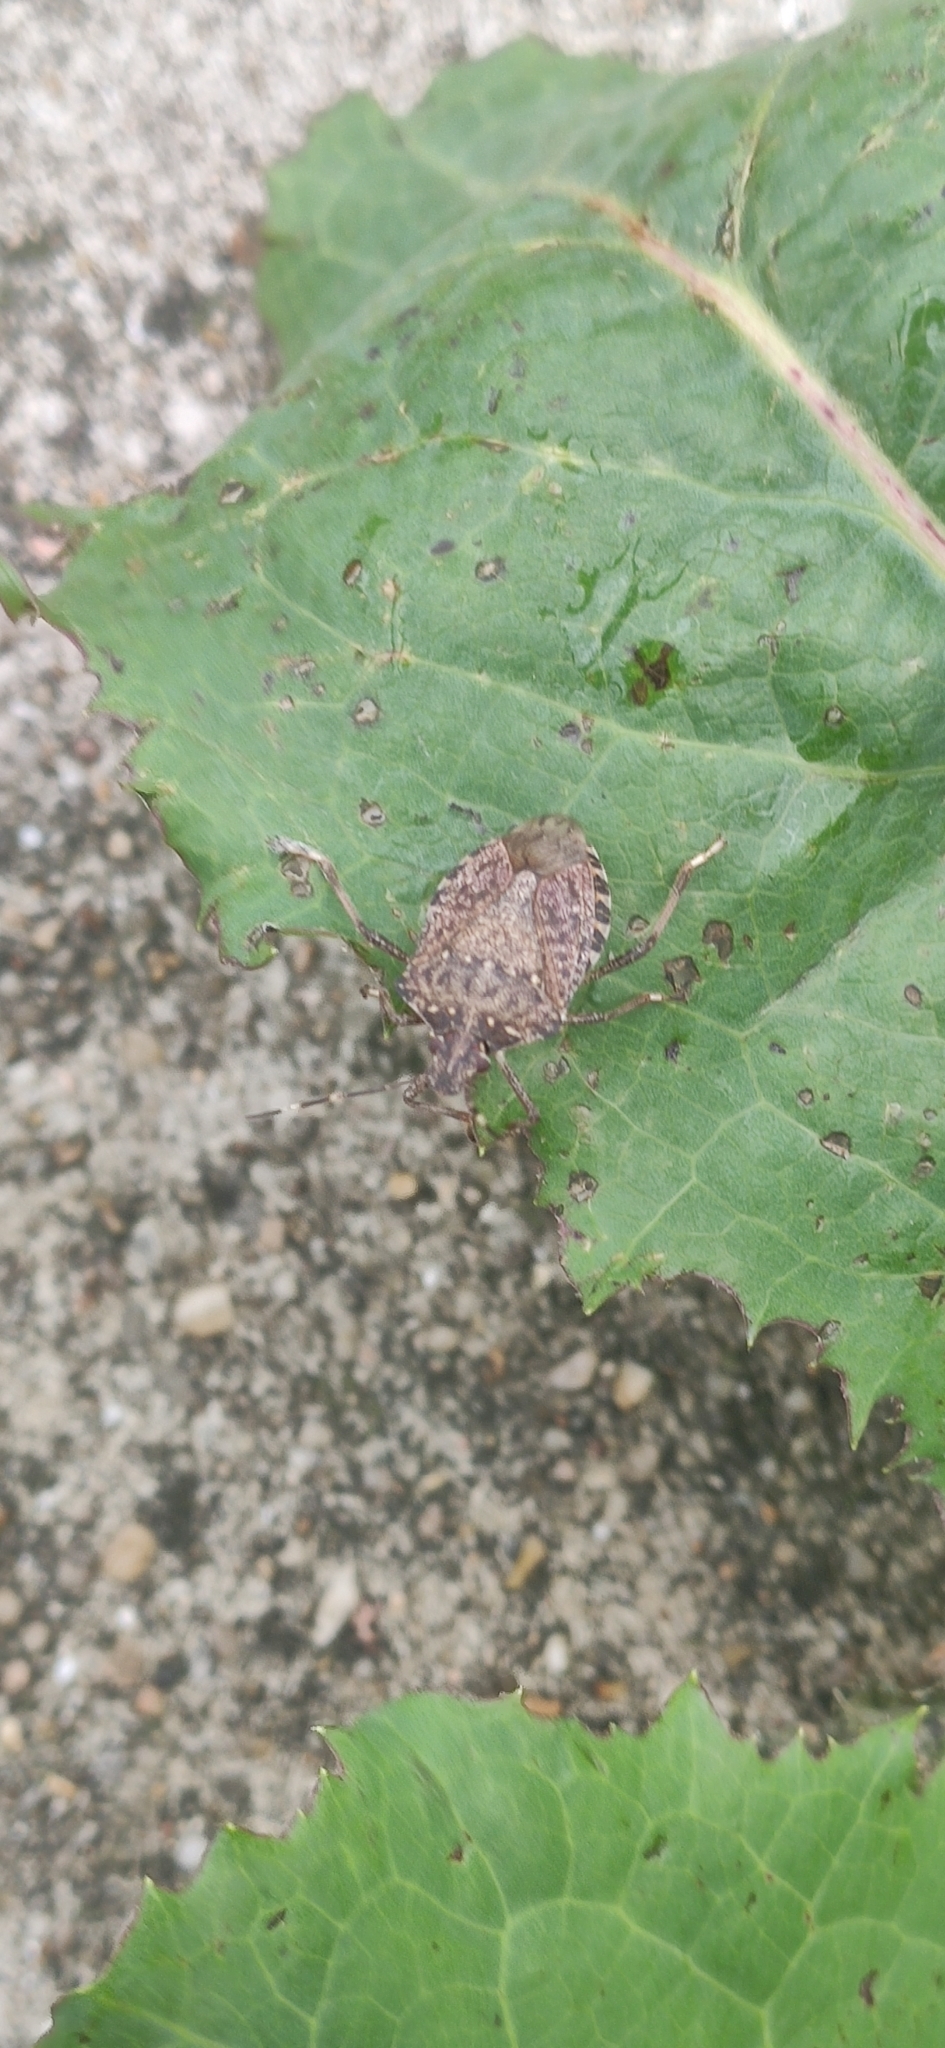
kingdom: Animalia
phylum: Arthropoda
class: Insecta
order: Hemiptera
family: Pentatomidae
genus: Halyomorpha
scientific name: Halyomorpha halys
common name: Brown marmorated stink bug
